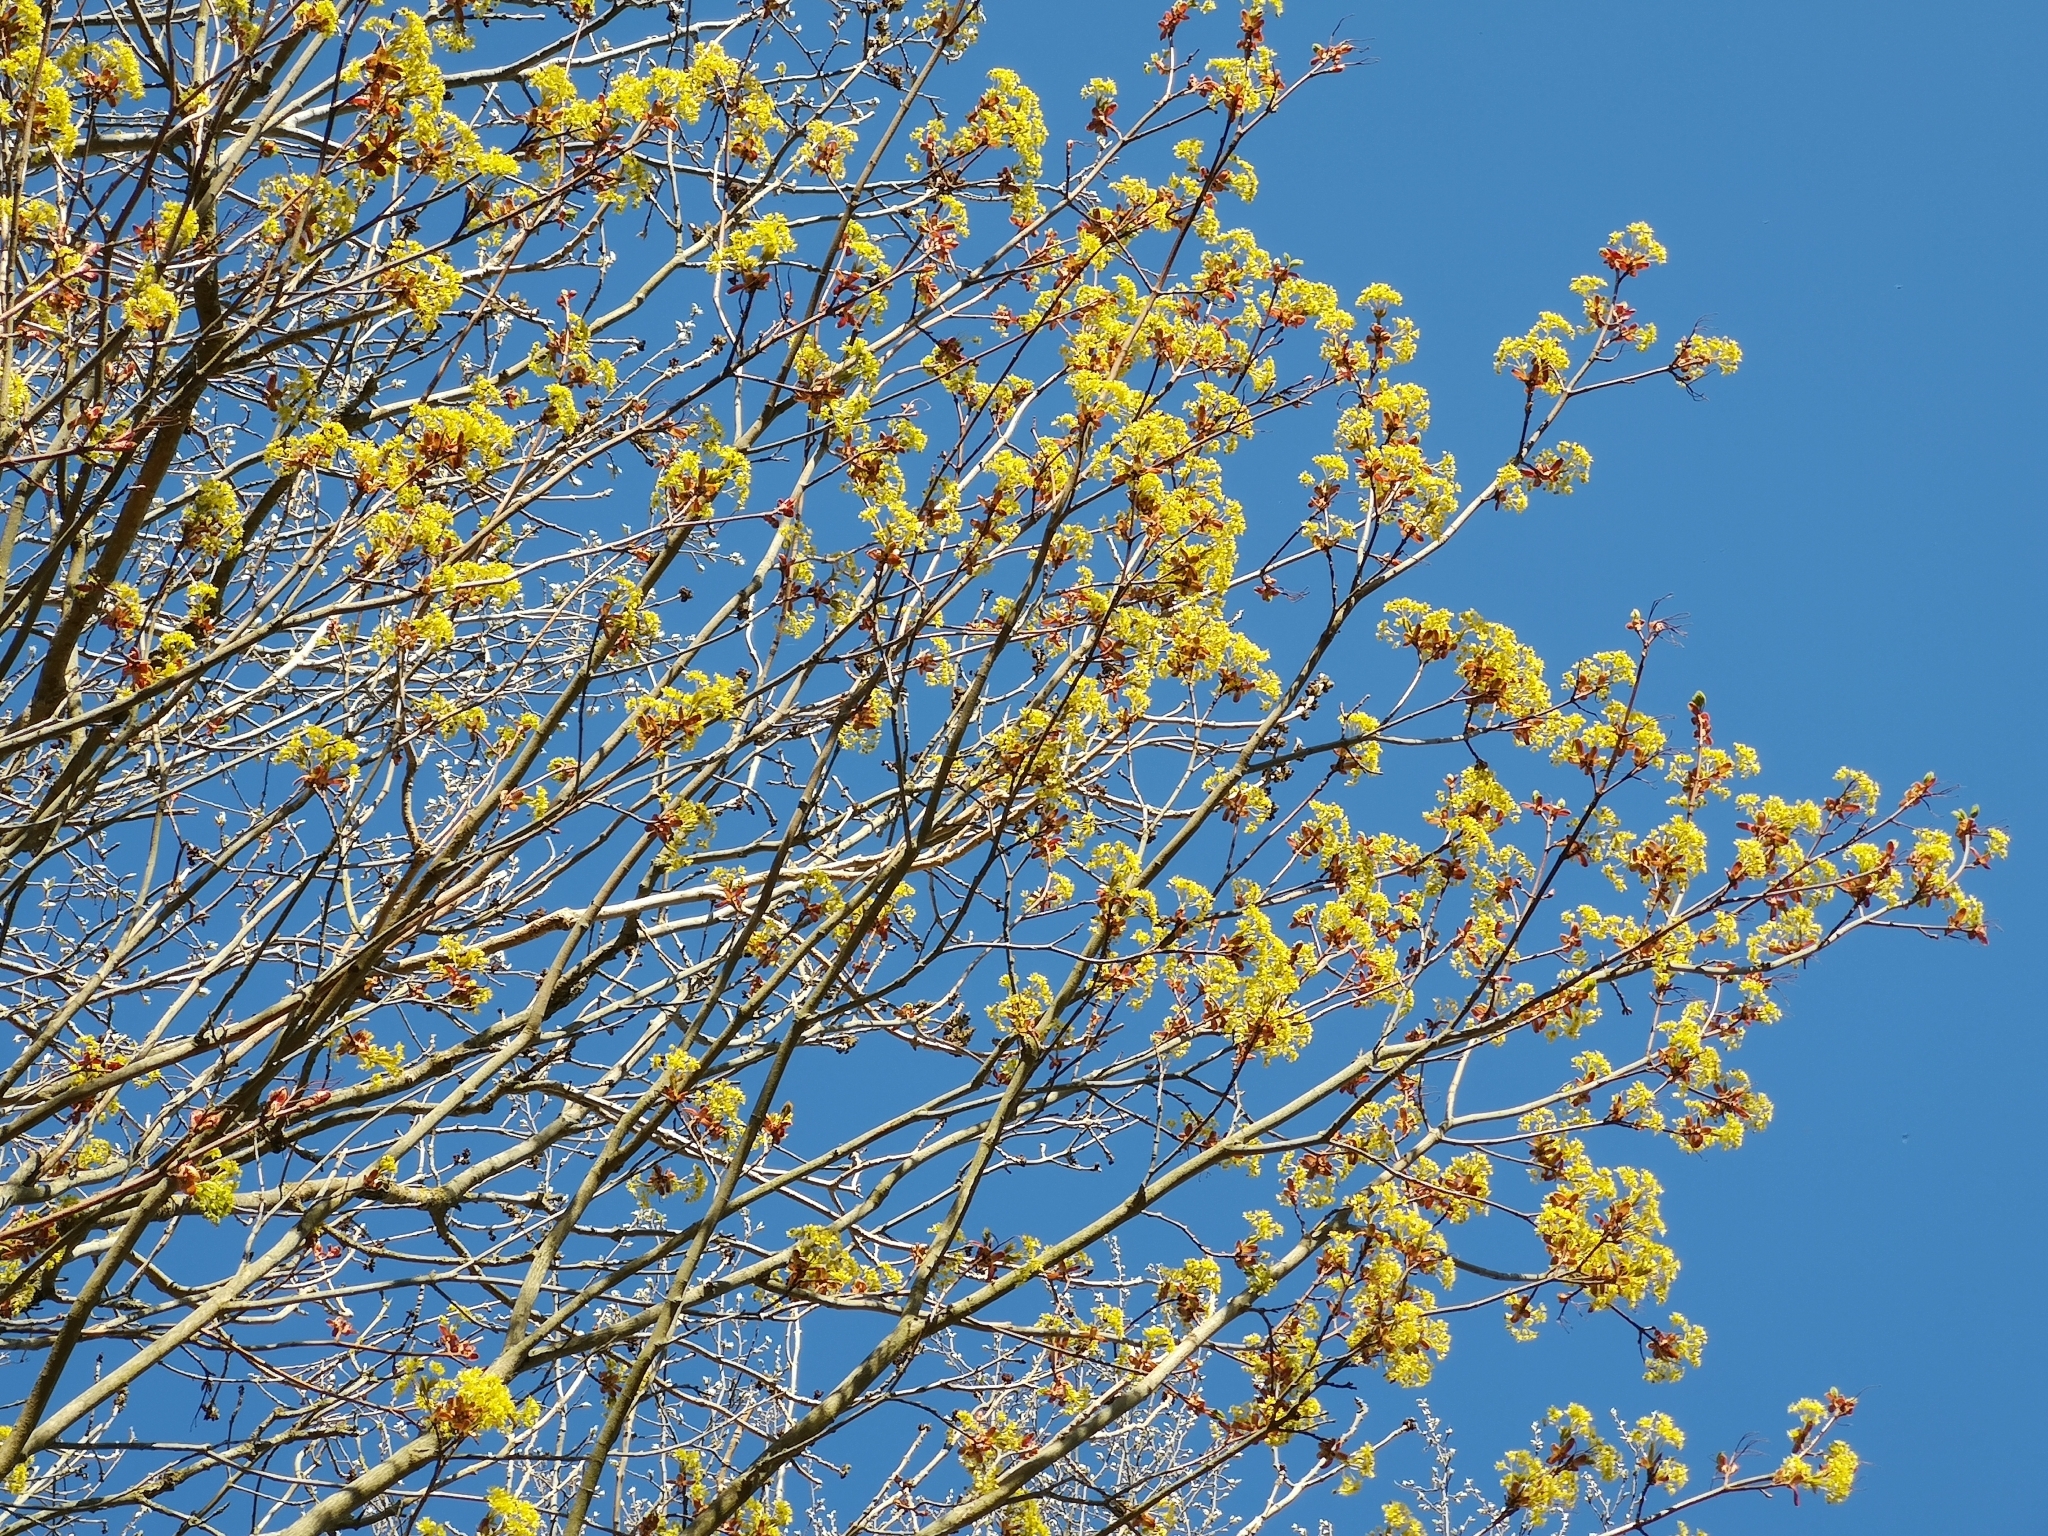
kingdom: Plantae
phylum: Tracheophyta
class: Magnoliopsida
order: Sapindales
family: Sapindaceae
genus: Acer
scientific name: Acer platanoides
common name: Norway maple
